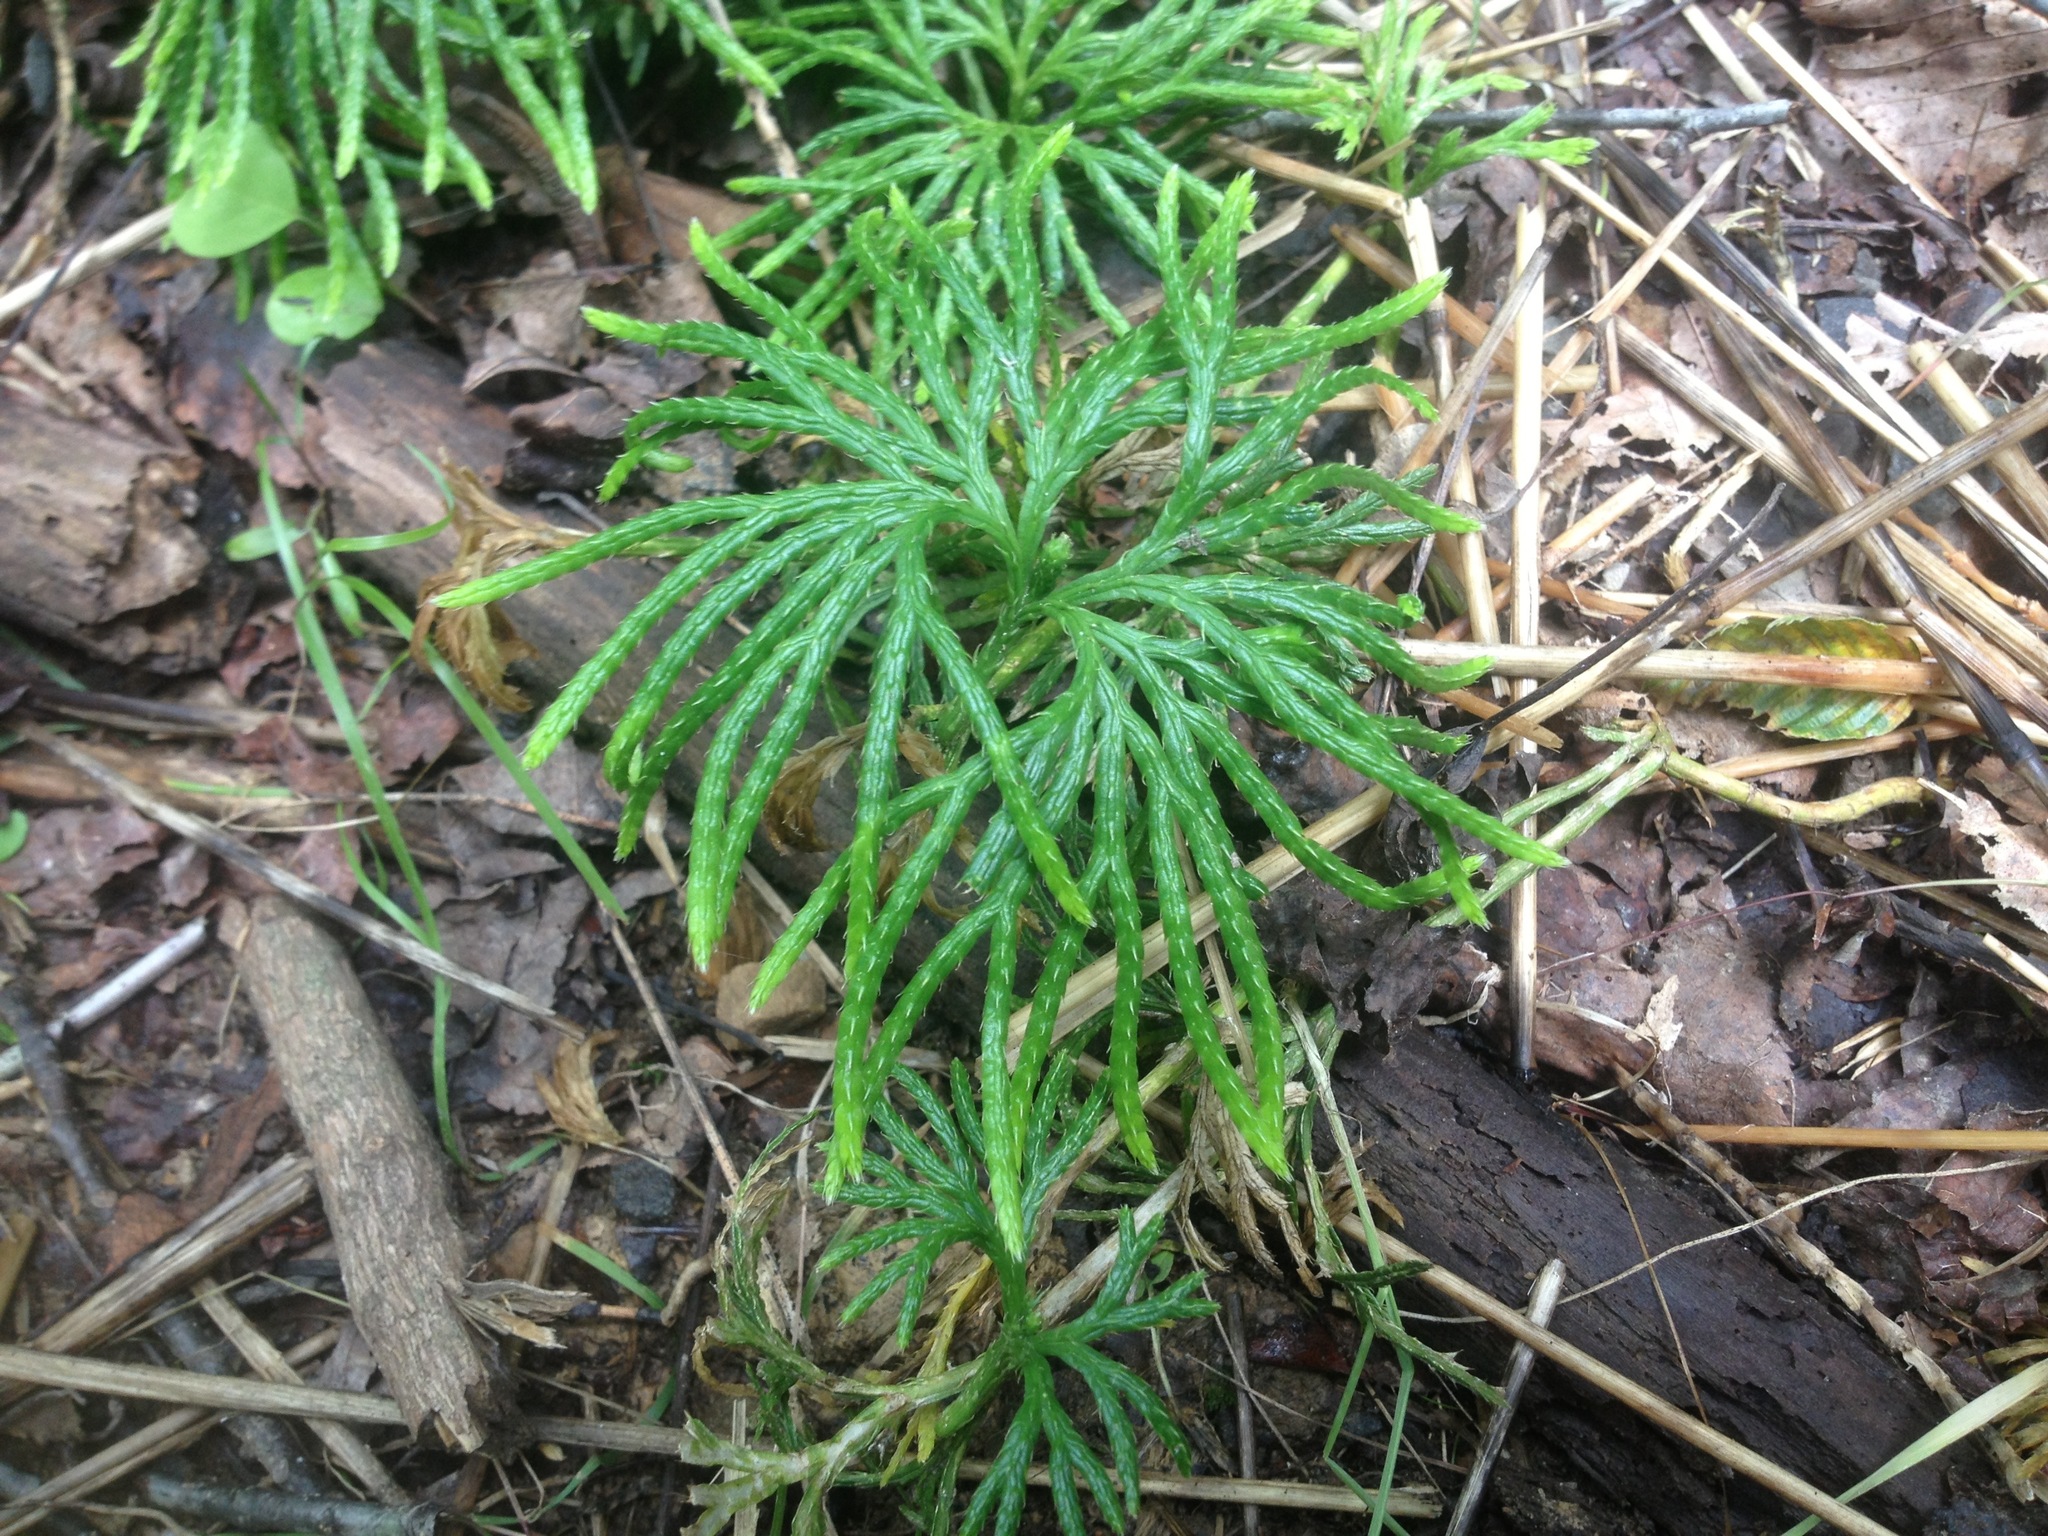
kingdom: Plantae
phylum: Tracheophyta
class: Lycopodiopsida
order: Lycopodiales
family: Lycopodiaceae
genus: Diphasiastrum
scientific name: Diphasiastrum digitatum
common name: Southern running-pine
